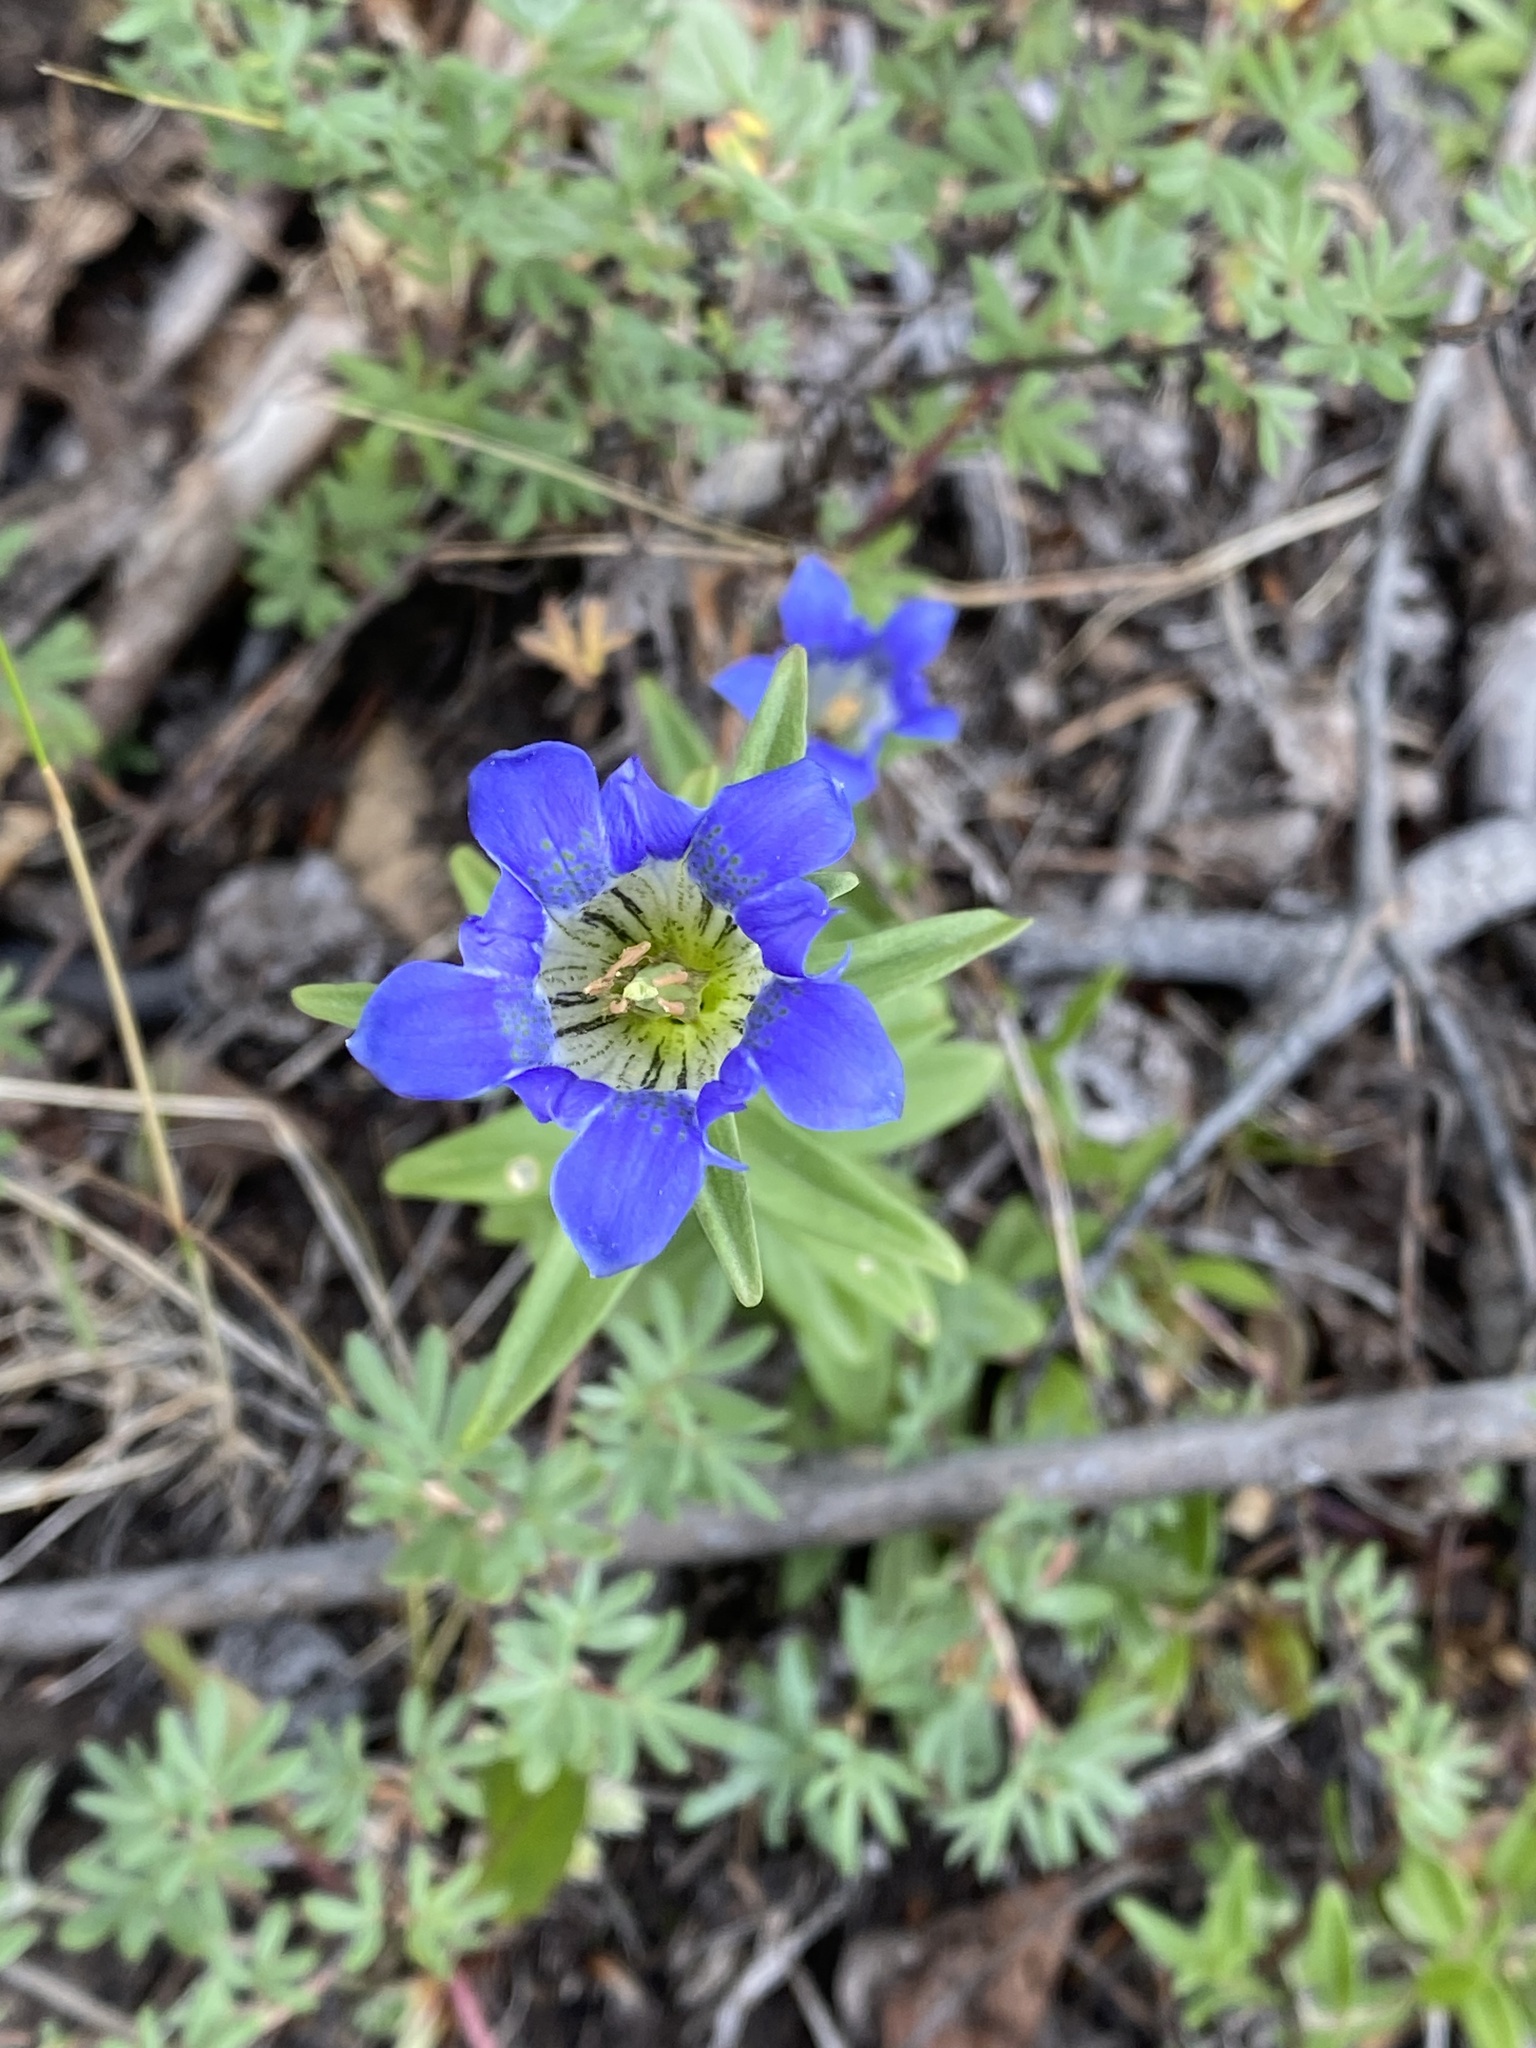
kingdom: Plantae
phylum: Tracheophyta
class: Magnoliopsida
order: Gentianales
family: Gentianaceae
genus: Gentiana
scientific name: Gentiana parryi
